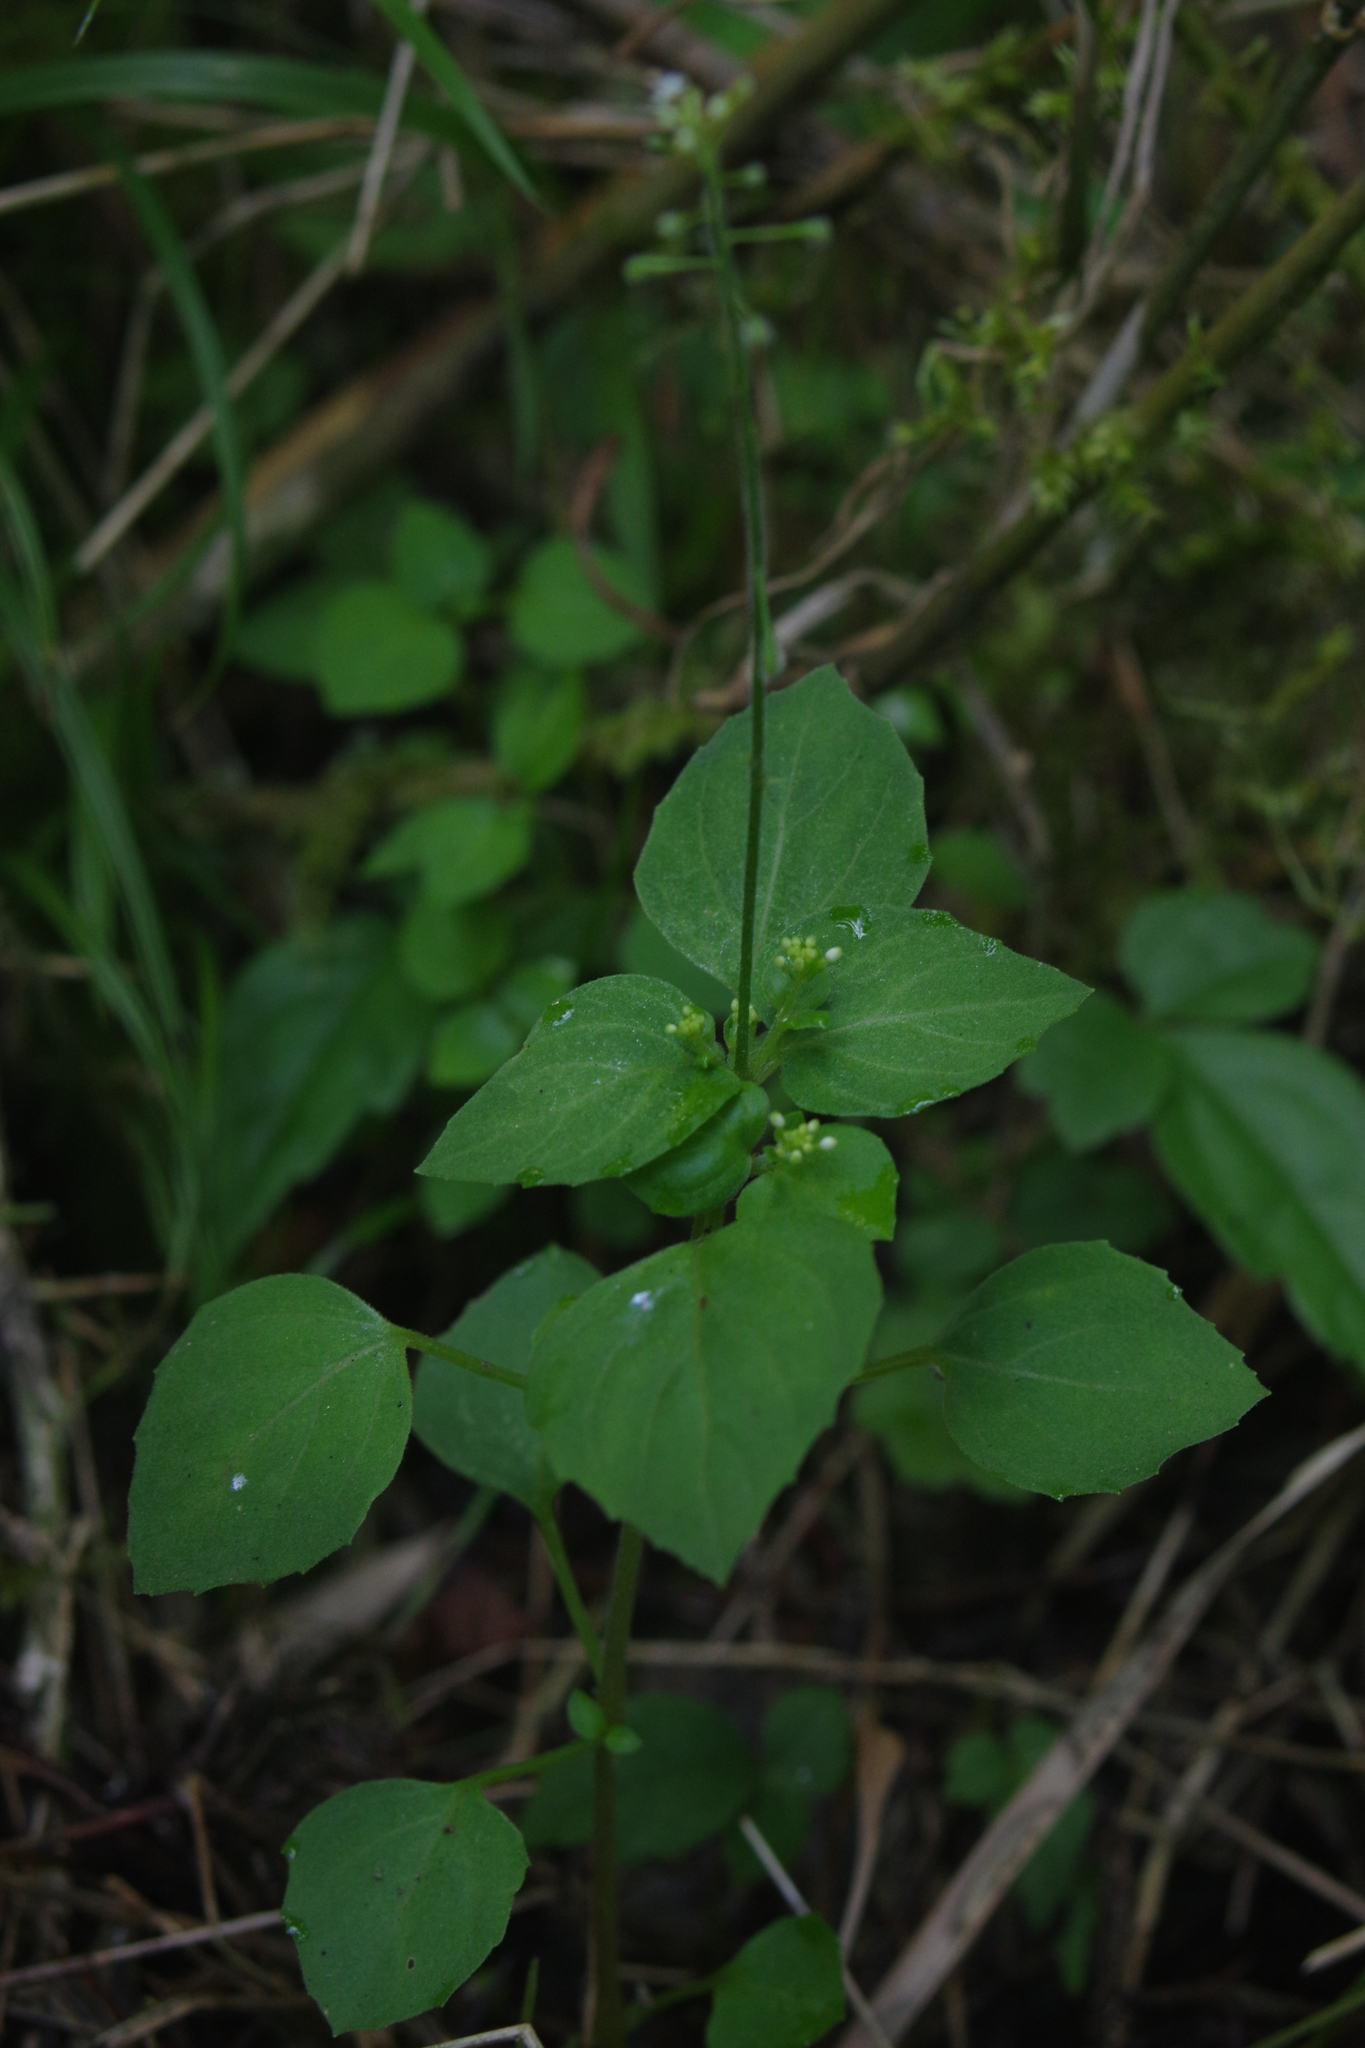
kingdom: Plantae
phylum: Tracheophyta
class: Magnoliopsida
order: Myrtales
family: Onagraceae
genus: Circaea
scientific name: Circaea alpina
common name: Alpine enchanter's-nightshade
